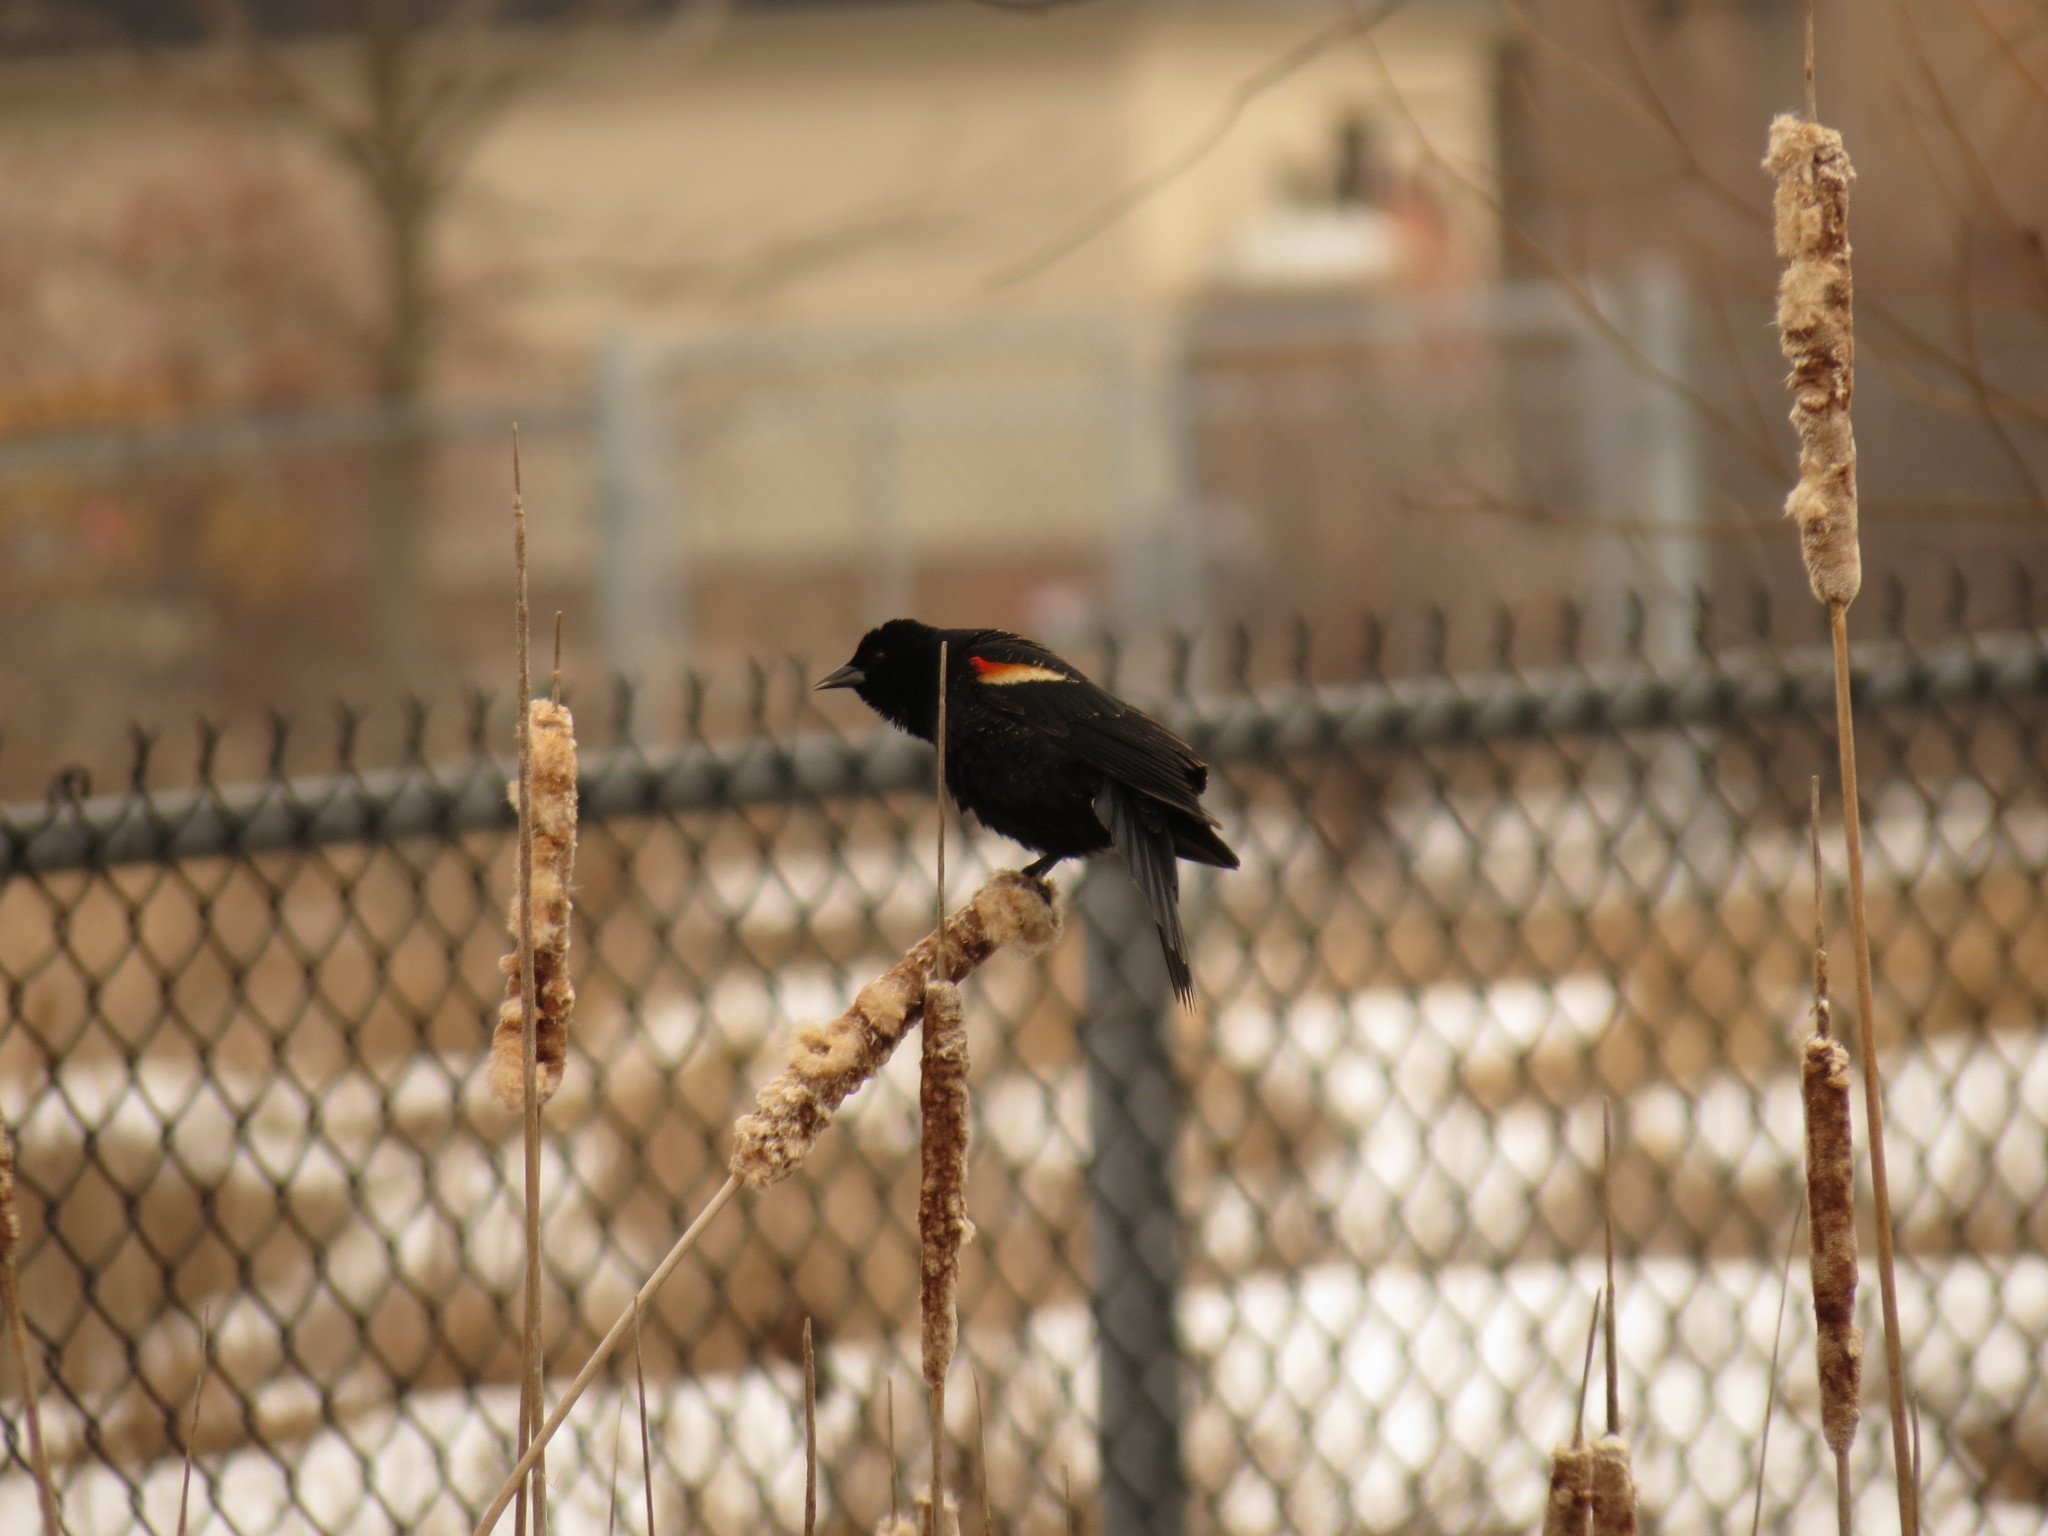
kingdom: Animalia
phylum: Chordata
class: Aves
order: Passeriformes
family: Icteridae
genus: Agelaius
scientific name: Agelaius phoeniceus
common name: Red-winged blackbird
